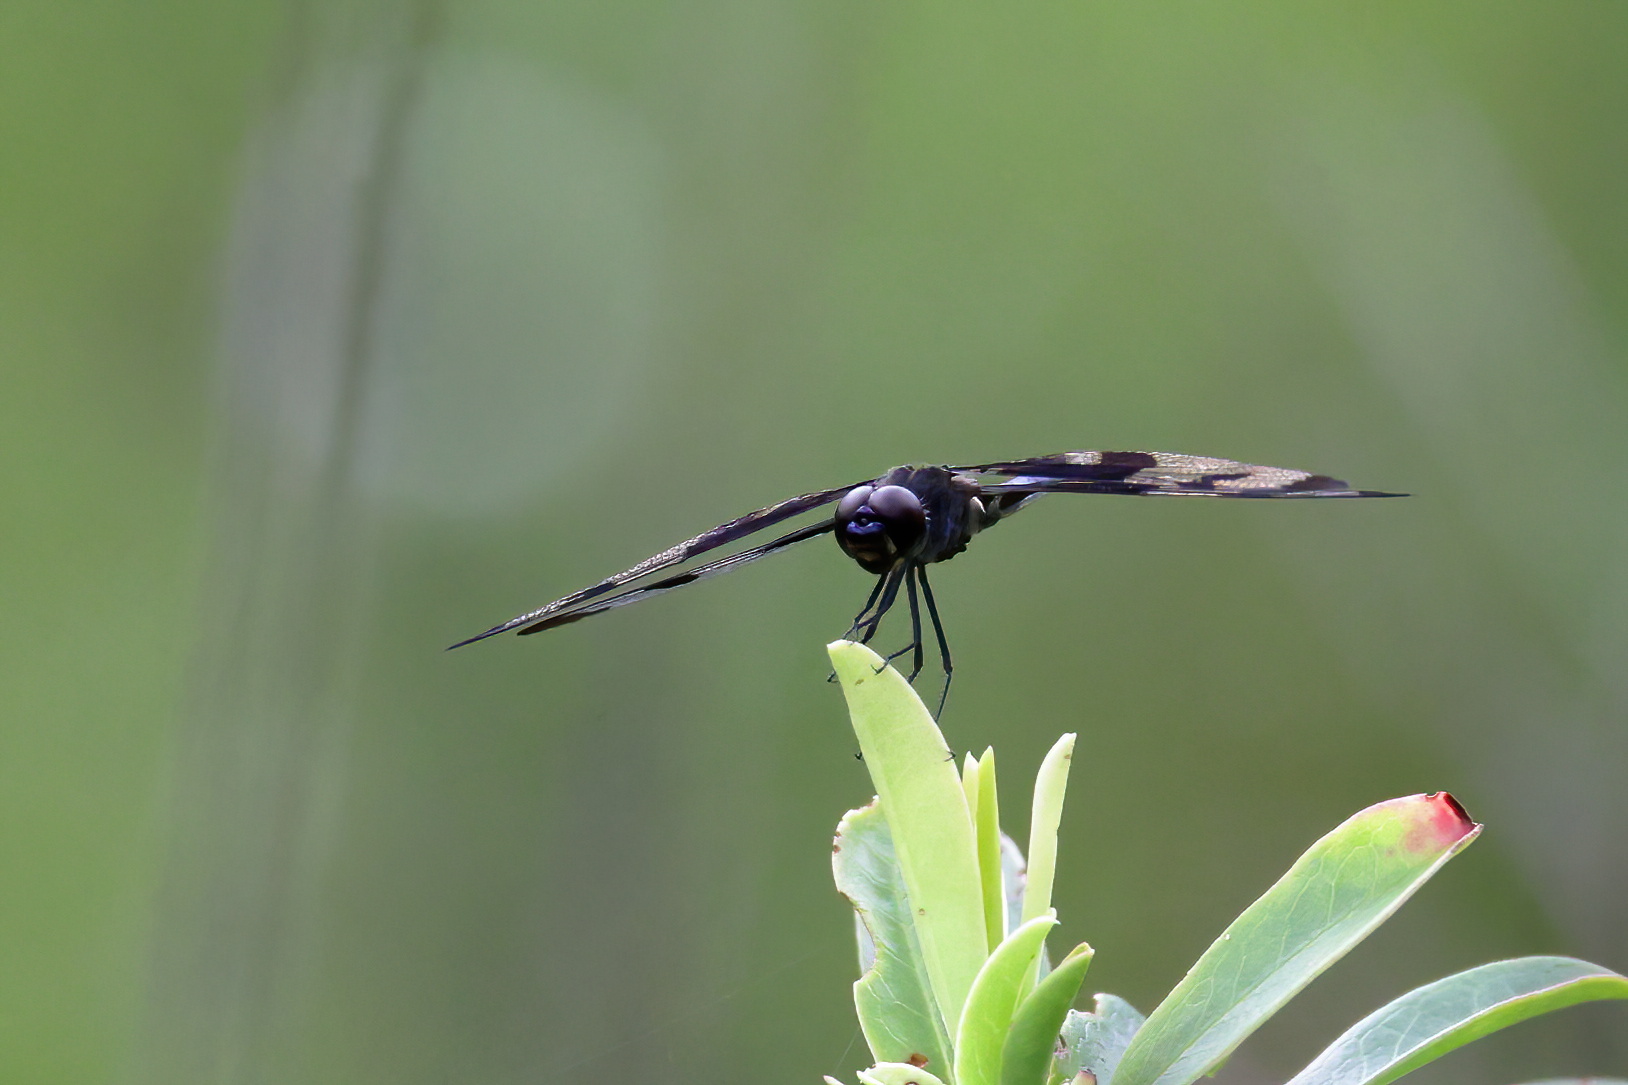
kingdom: Animalia
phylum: Arthropoda
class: Insecta
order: Odonata
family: Libellulidae
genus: Celithemis
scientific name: Celithemis fasciata
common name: Banded pennant
